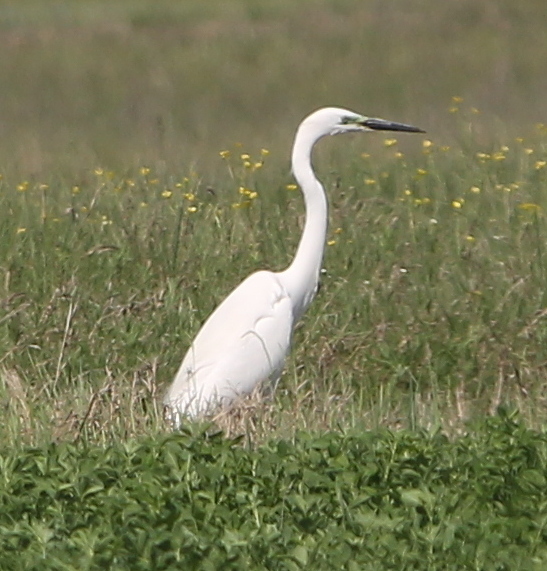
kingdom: Animalia
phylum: Chordata
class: Aves
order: Pelecaniformes
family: Ardeidae
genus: Ardea
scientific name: Ardea alba
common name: Great egret
